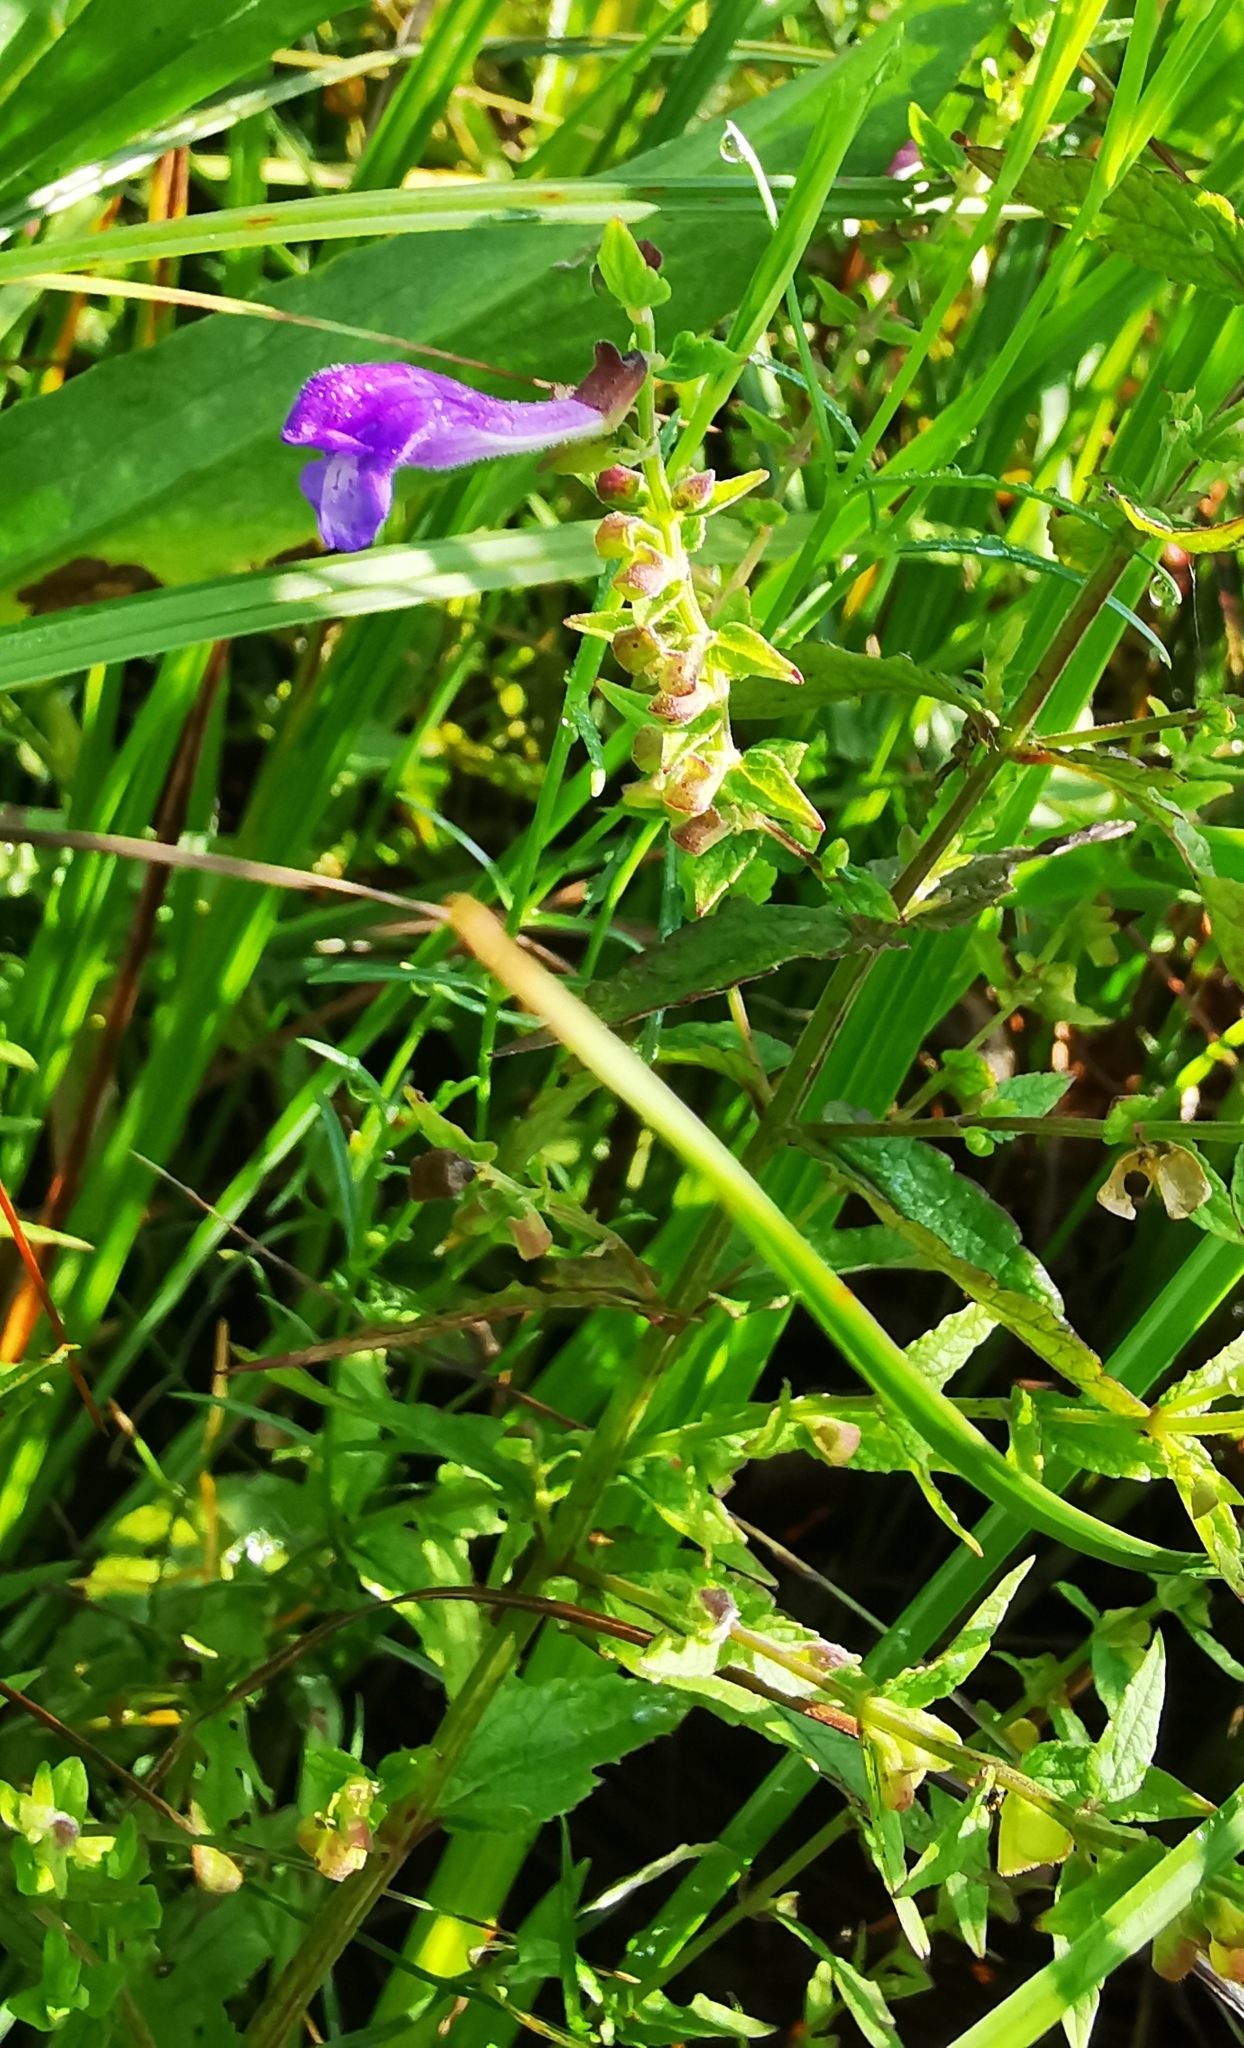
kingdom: Plantae
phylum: Tracheophyta
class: Magnoliopsida
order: Lamiales
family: Lamiaceae
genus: Scutellaria
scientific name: Scutellaria galericulata
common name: Skullcap
